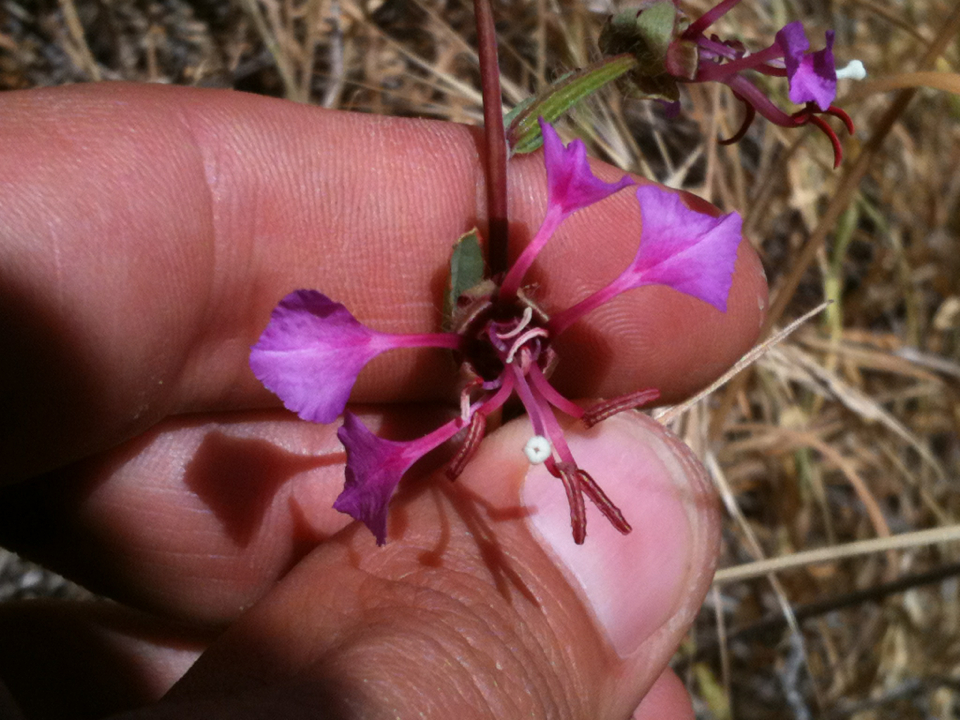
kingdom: Plantae
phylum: Tracheophyta
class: Magnoliopsida
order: Myrtales
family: Onagraceae
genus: Clarkia
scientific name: Clarkia unguiculata
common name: Clarkia
